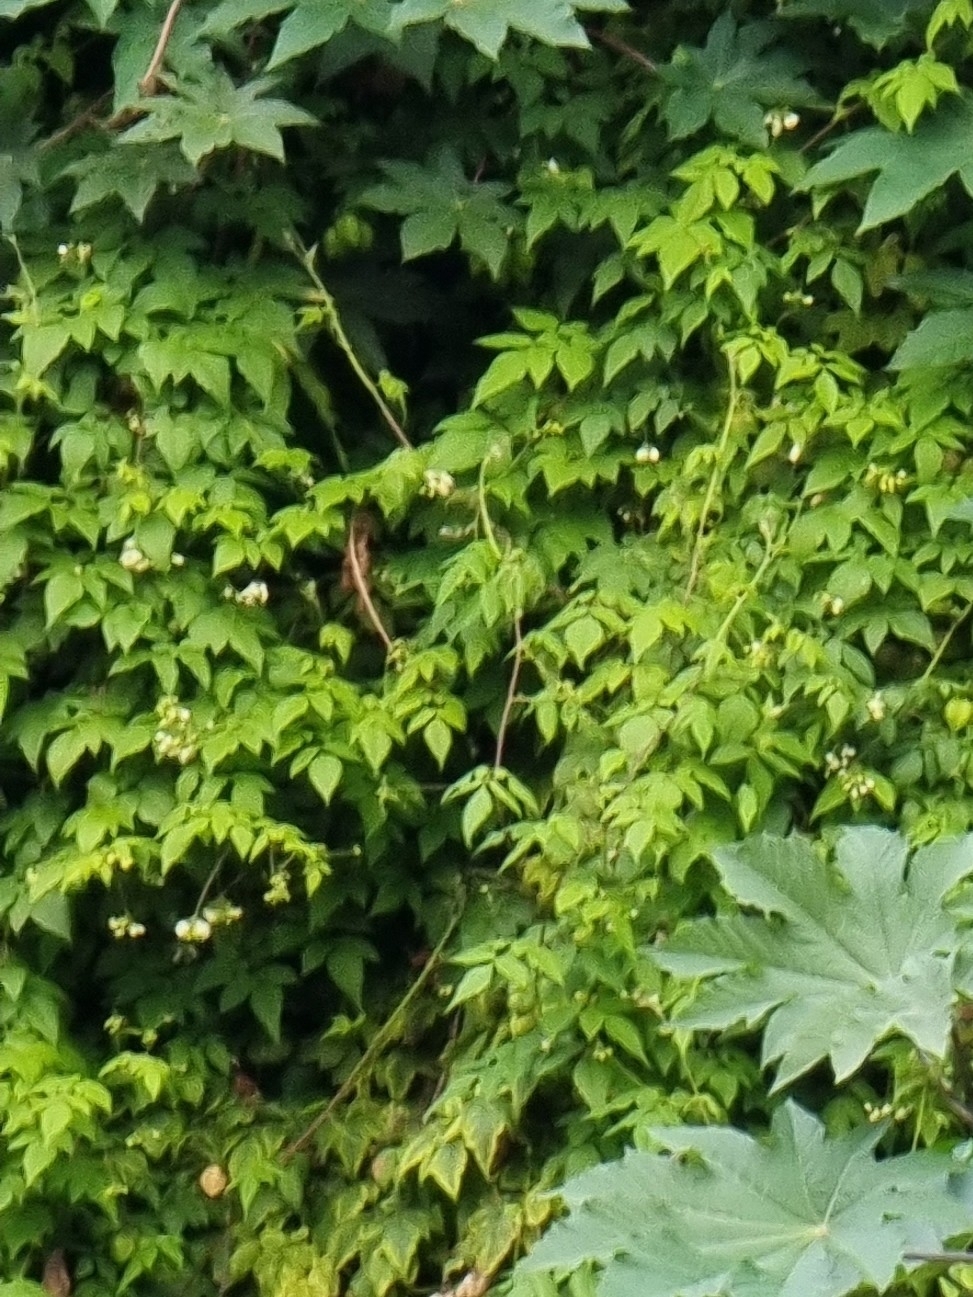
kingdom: Plantae
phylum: Tracheophyta
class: Magnoliopsida
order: Sapindales
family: Sapindaceae
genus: Cardiospermum
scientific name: Cardiospermum grandiflorum
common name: Balloon vine
